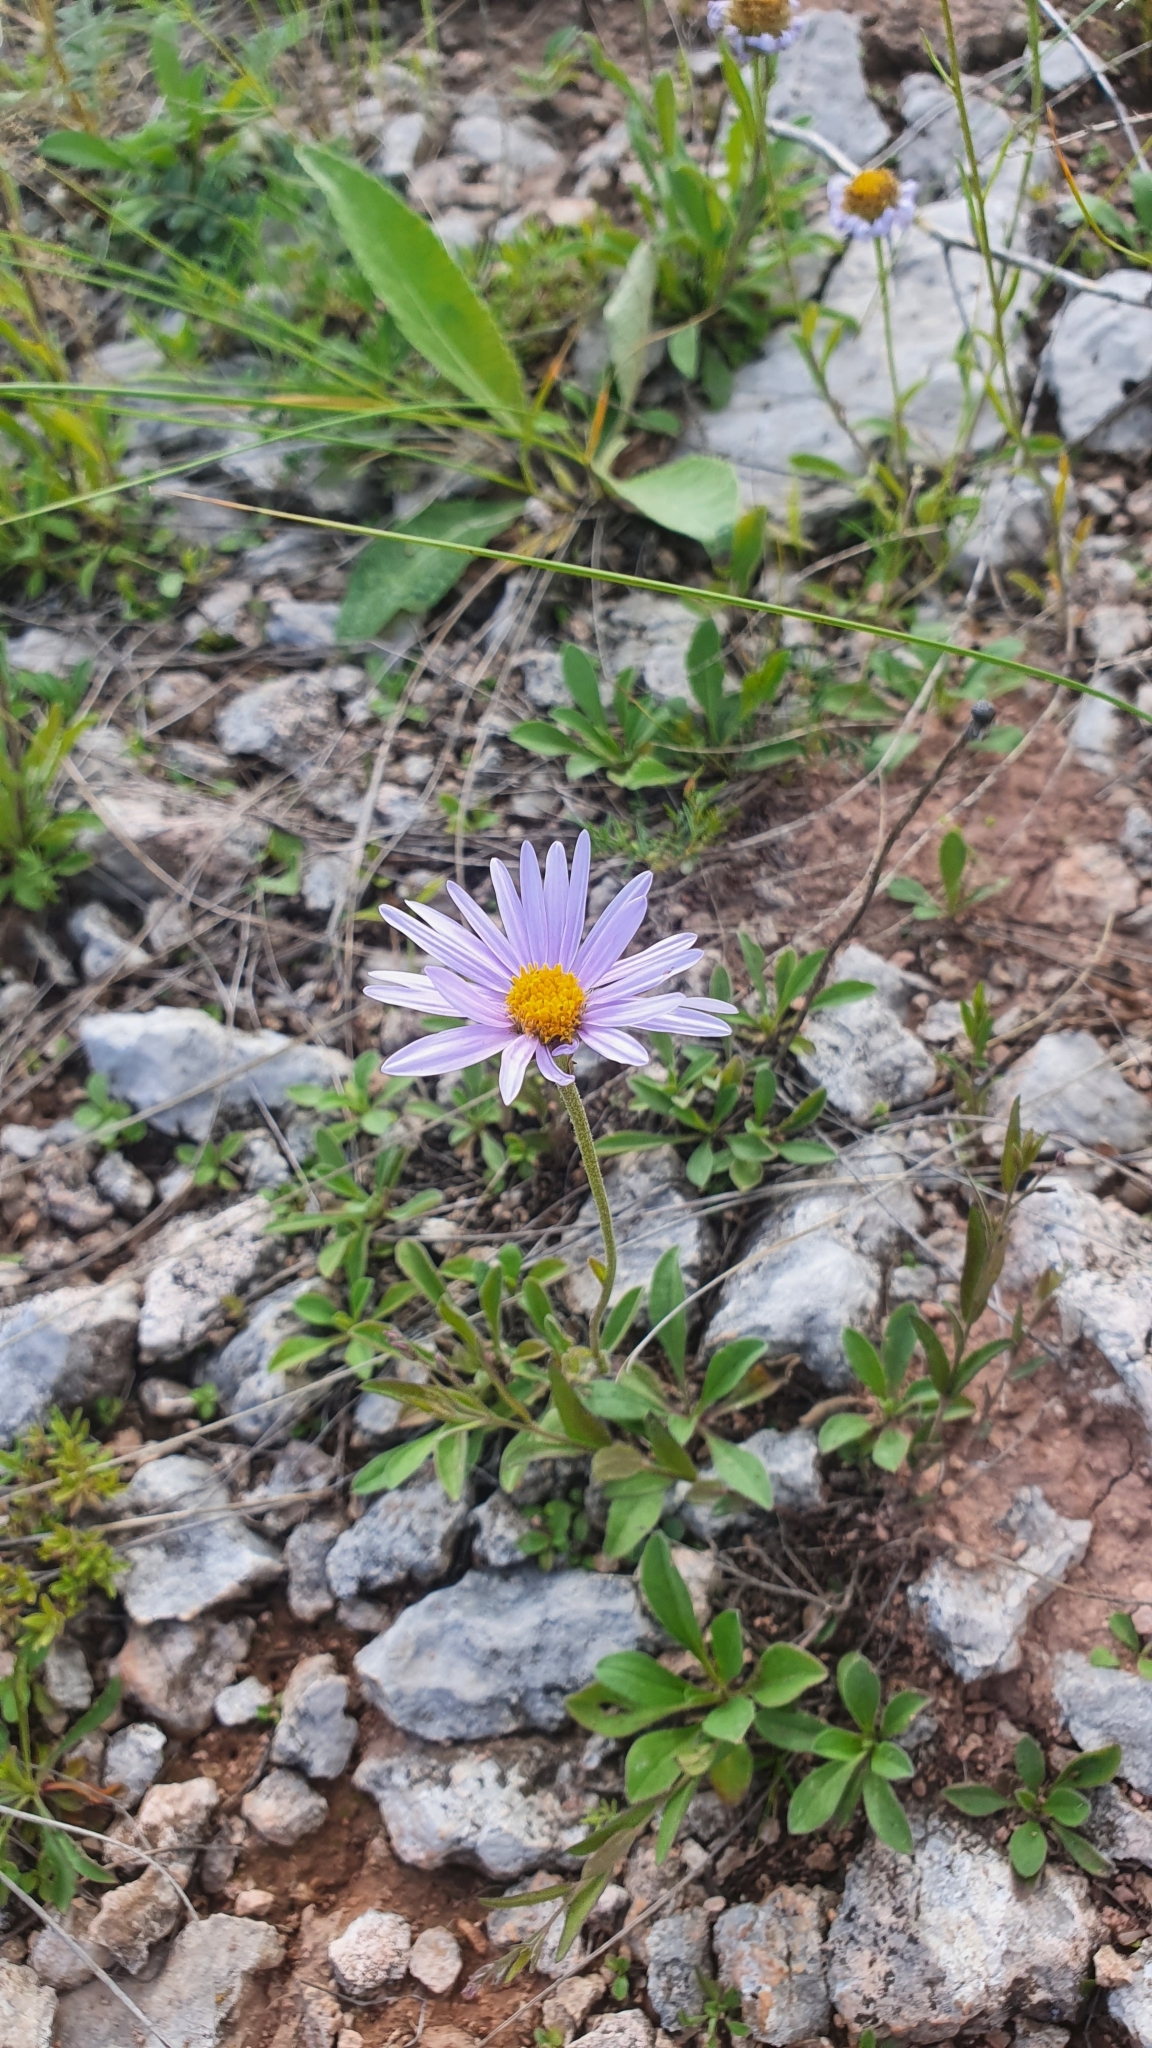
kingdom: Plantae
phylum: Tracheophyta
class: Magnoliopsida
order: Asterales
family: Asteraceae
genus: Aster
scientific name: Aster alpinus
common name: Alpine aster
